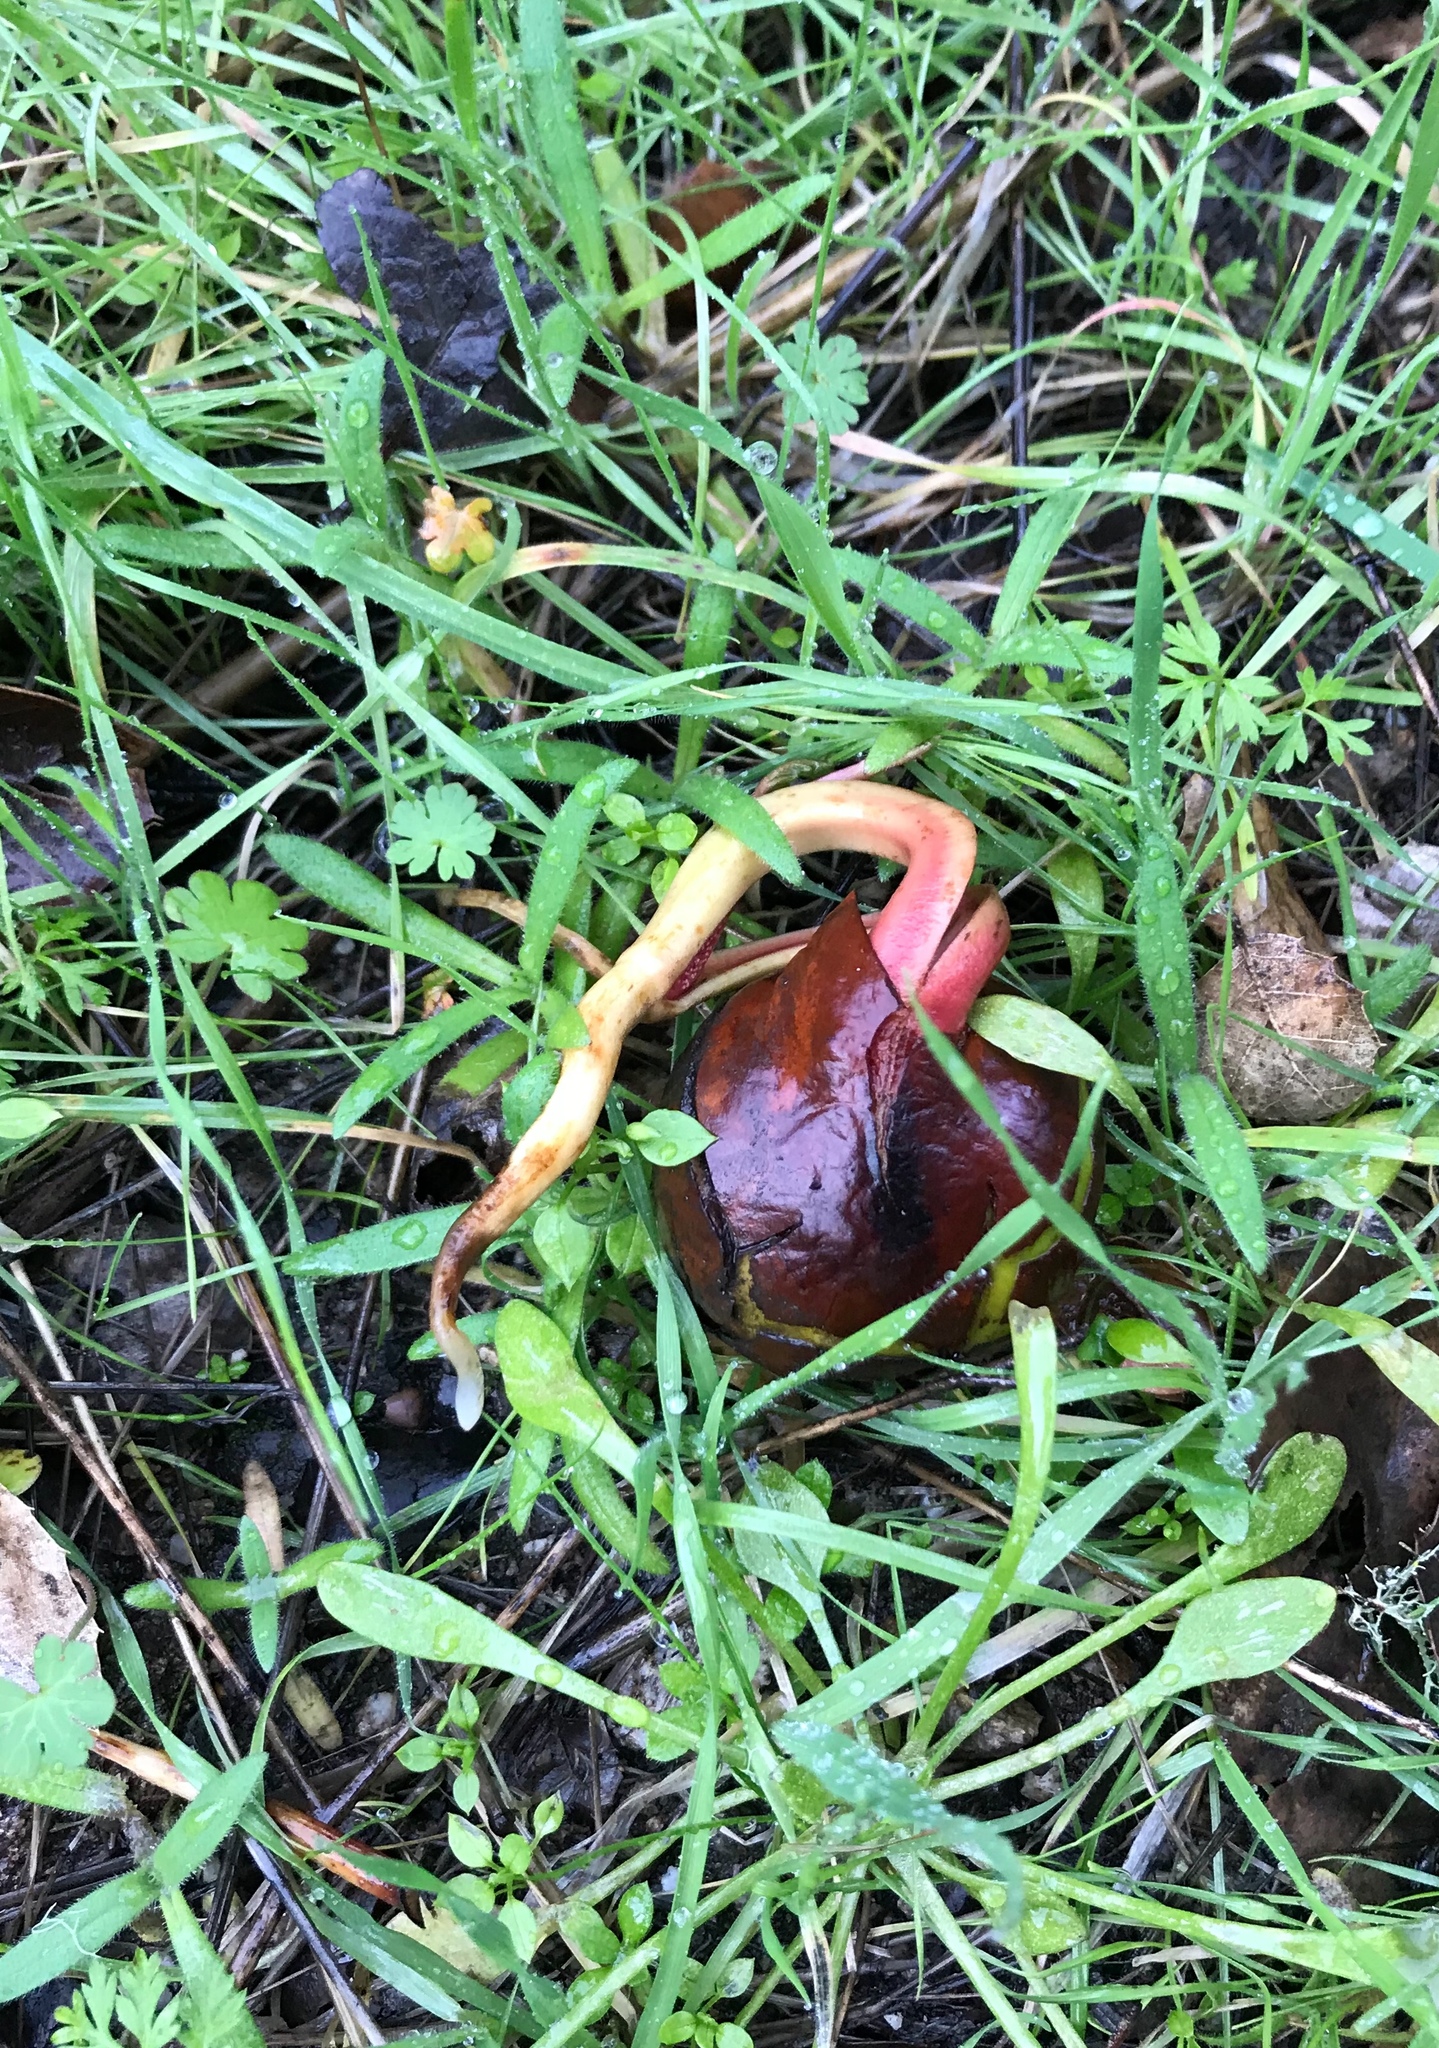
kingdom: Plantae
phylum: Tracheophyta
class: Magnoliopsida
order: Sapindales
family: Sapindaceae
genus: Aesculus
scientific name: Aesculus californica
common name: California buckeye
